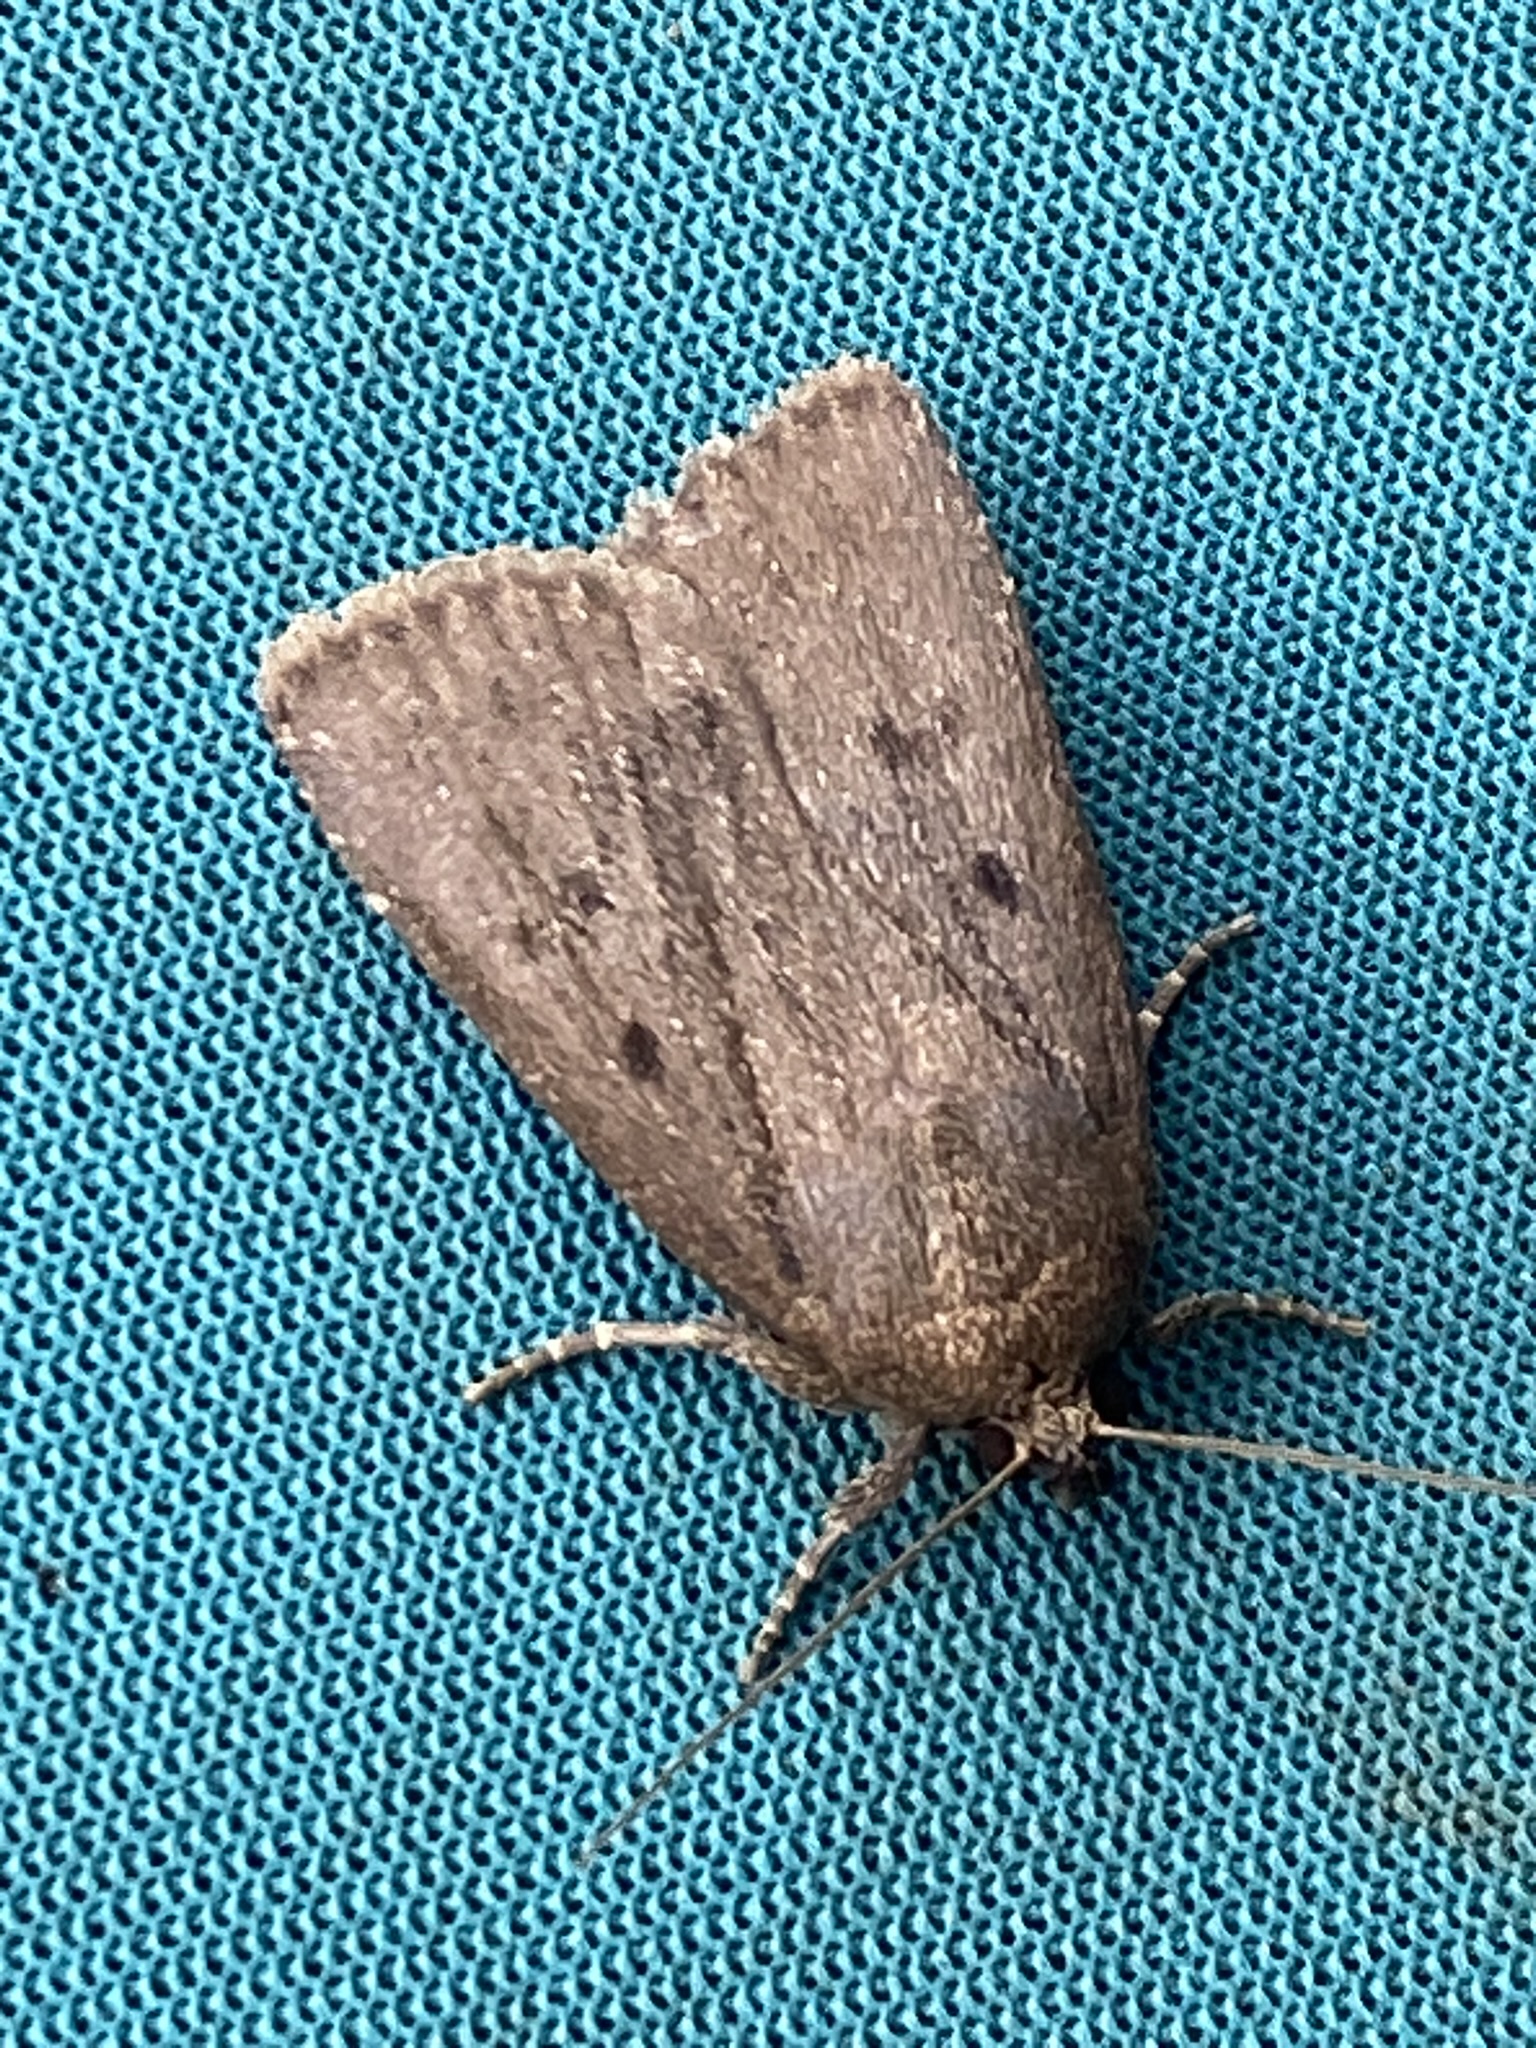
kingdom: Animalia
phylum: Arthropoda
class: Insecta
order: Lepidoptera
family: Noctuidae
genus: Amphipyra
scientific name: Amphipyra tragopoginis
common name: Mouse moth
